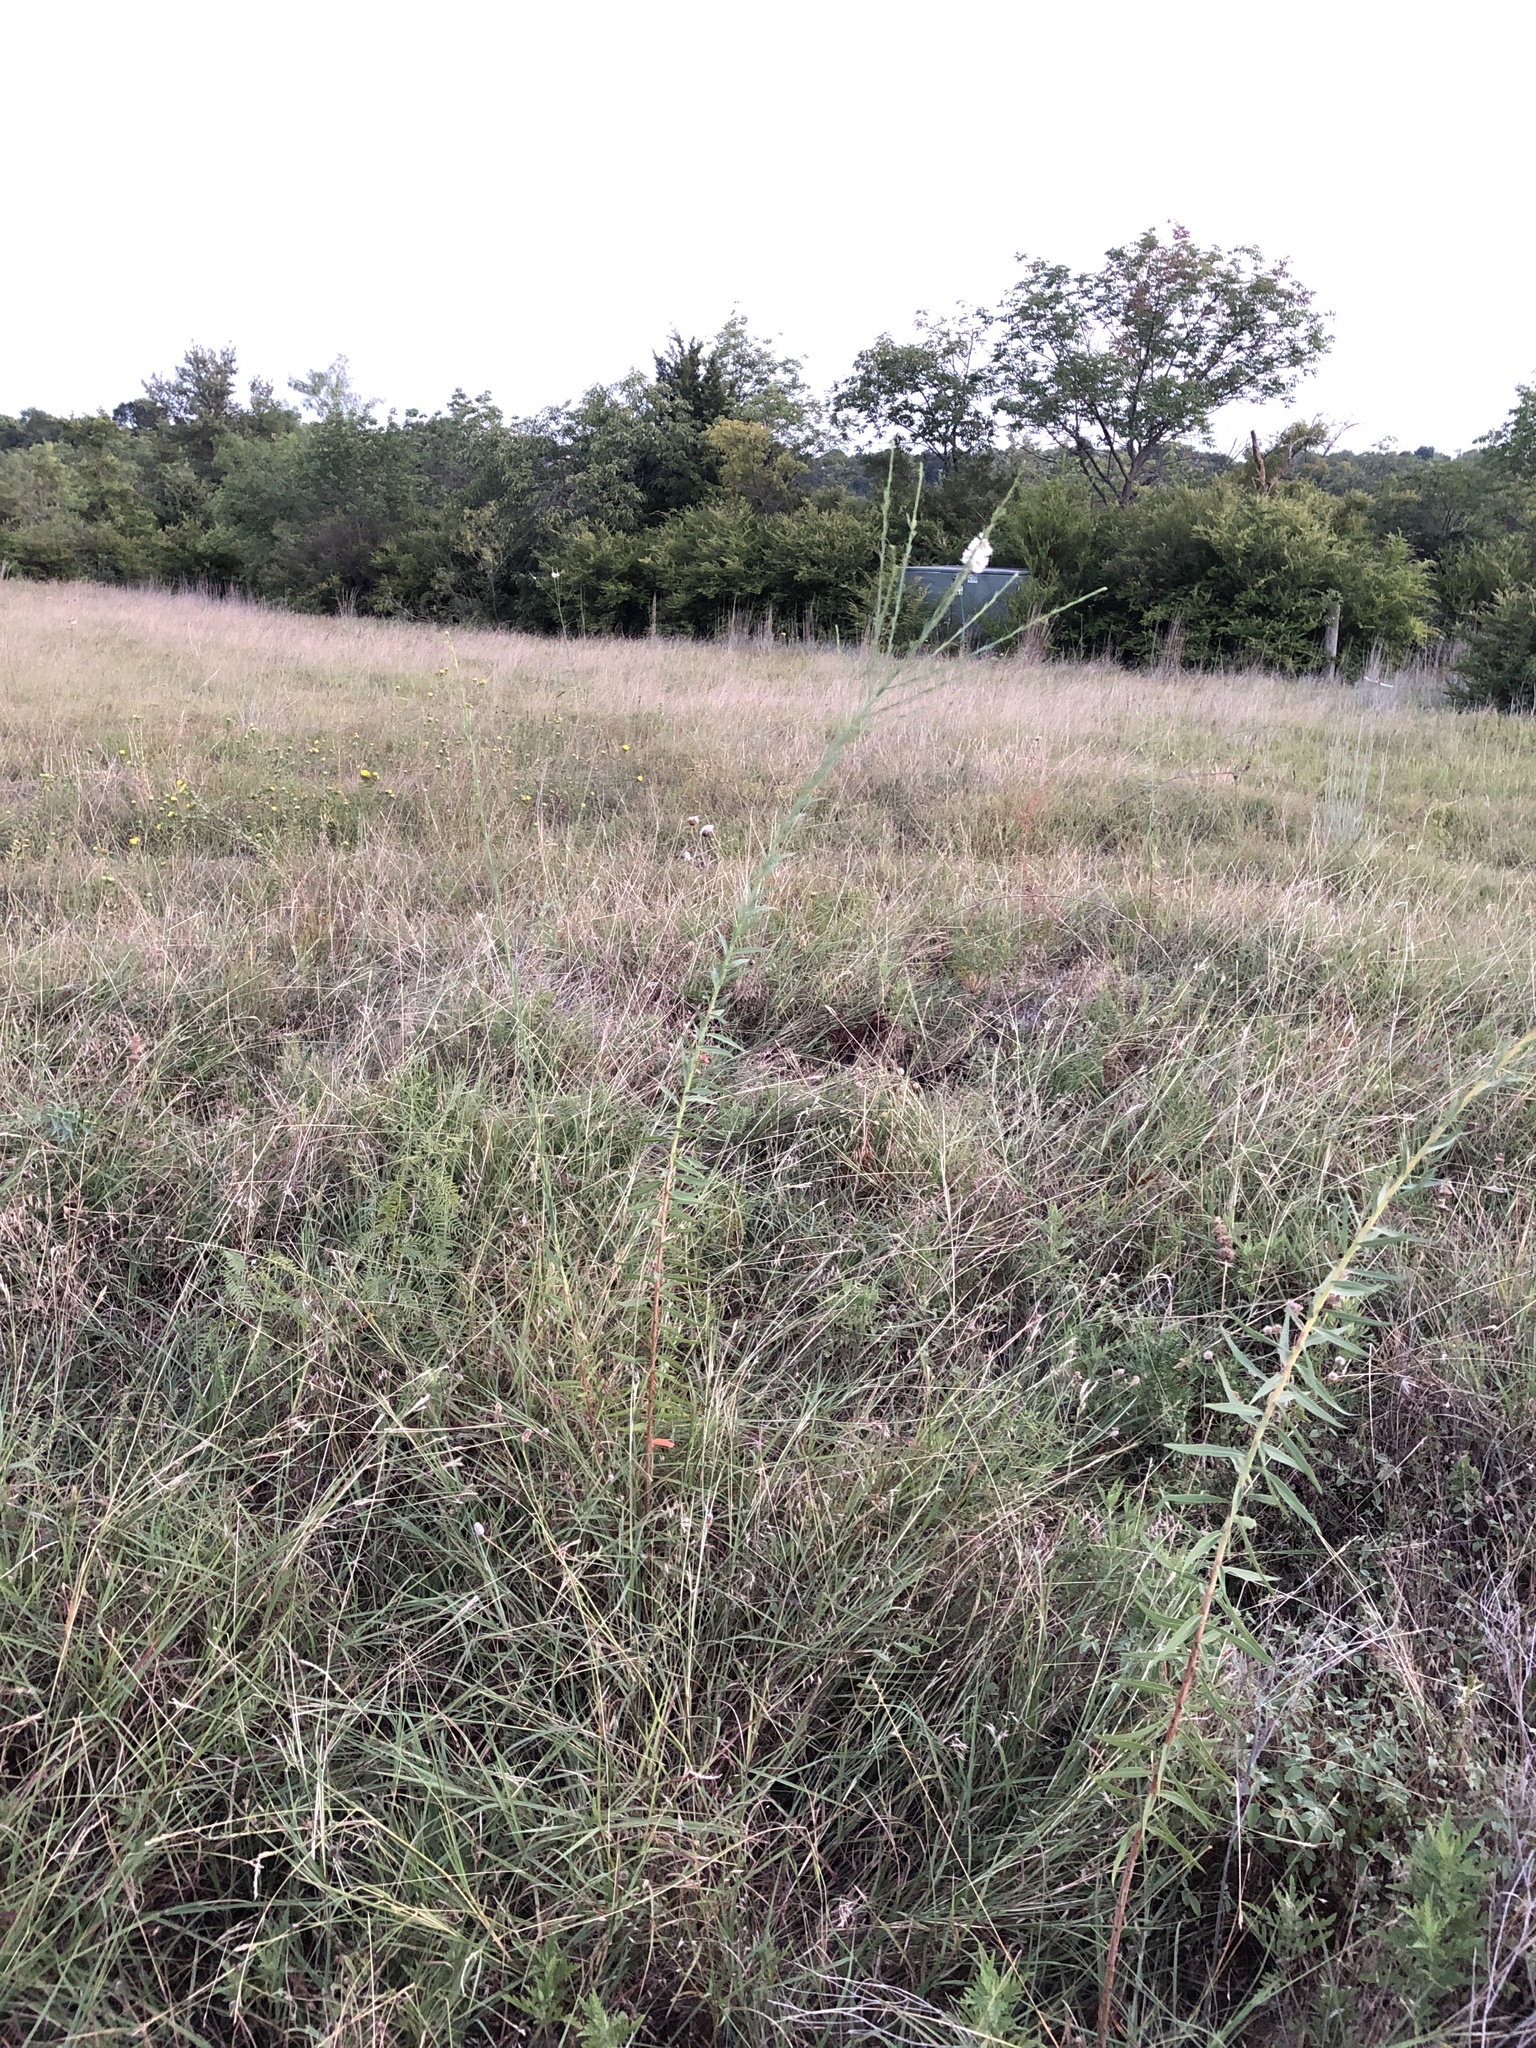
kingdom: Plantae
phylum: Tracheophyta
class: Magnoliopsida
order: Myrtales
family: Onagraceae
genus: Oenothera
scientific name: Oenothera glaucifolia
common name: False gaura
